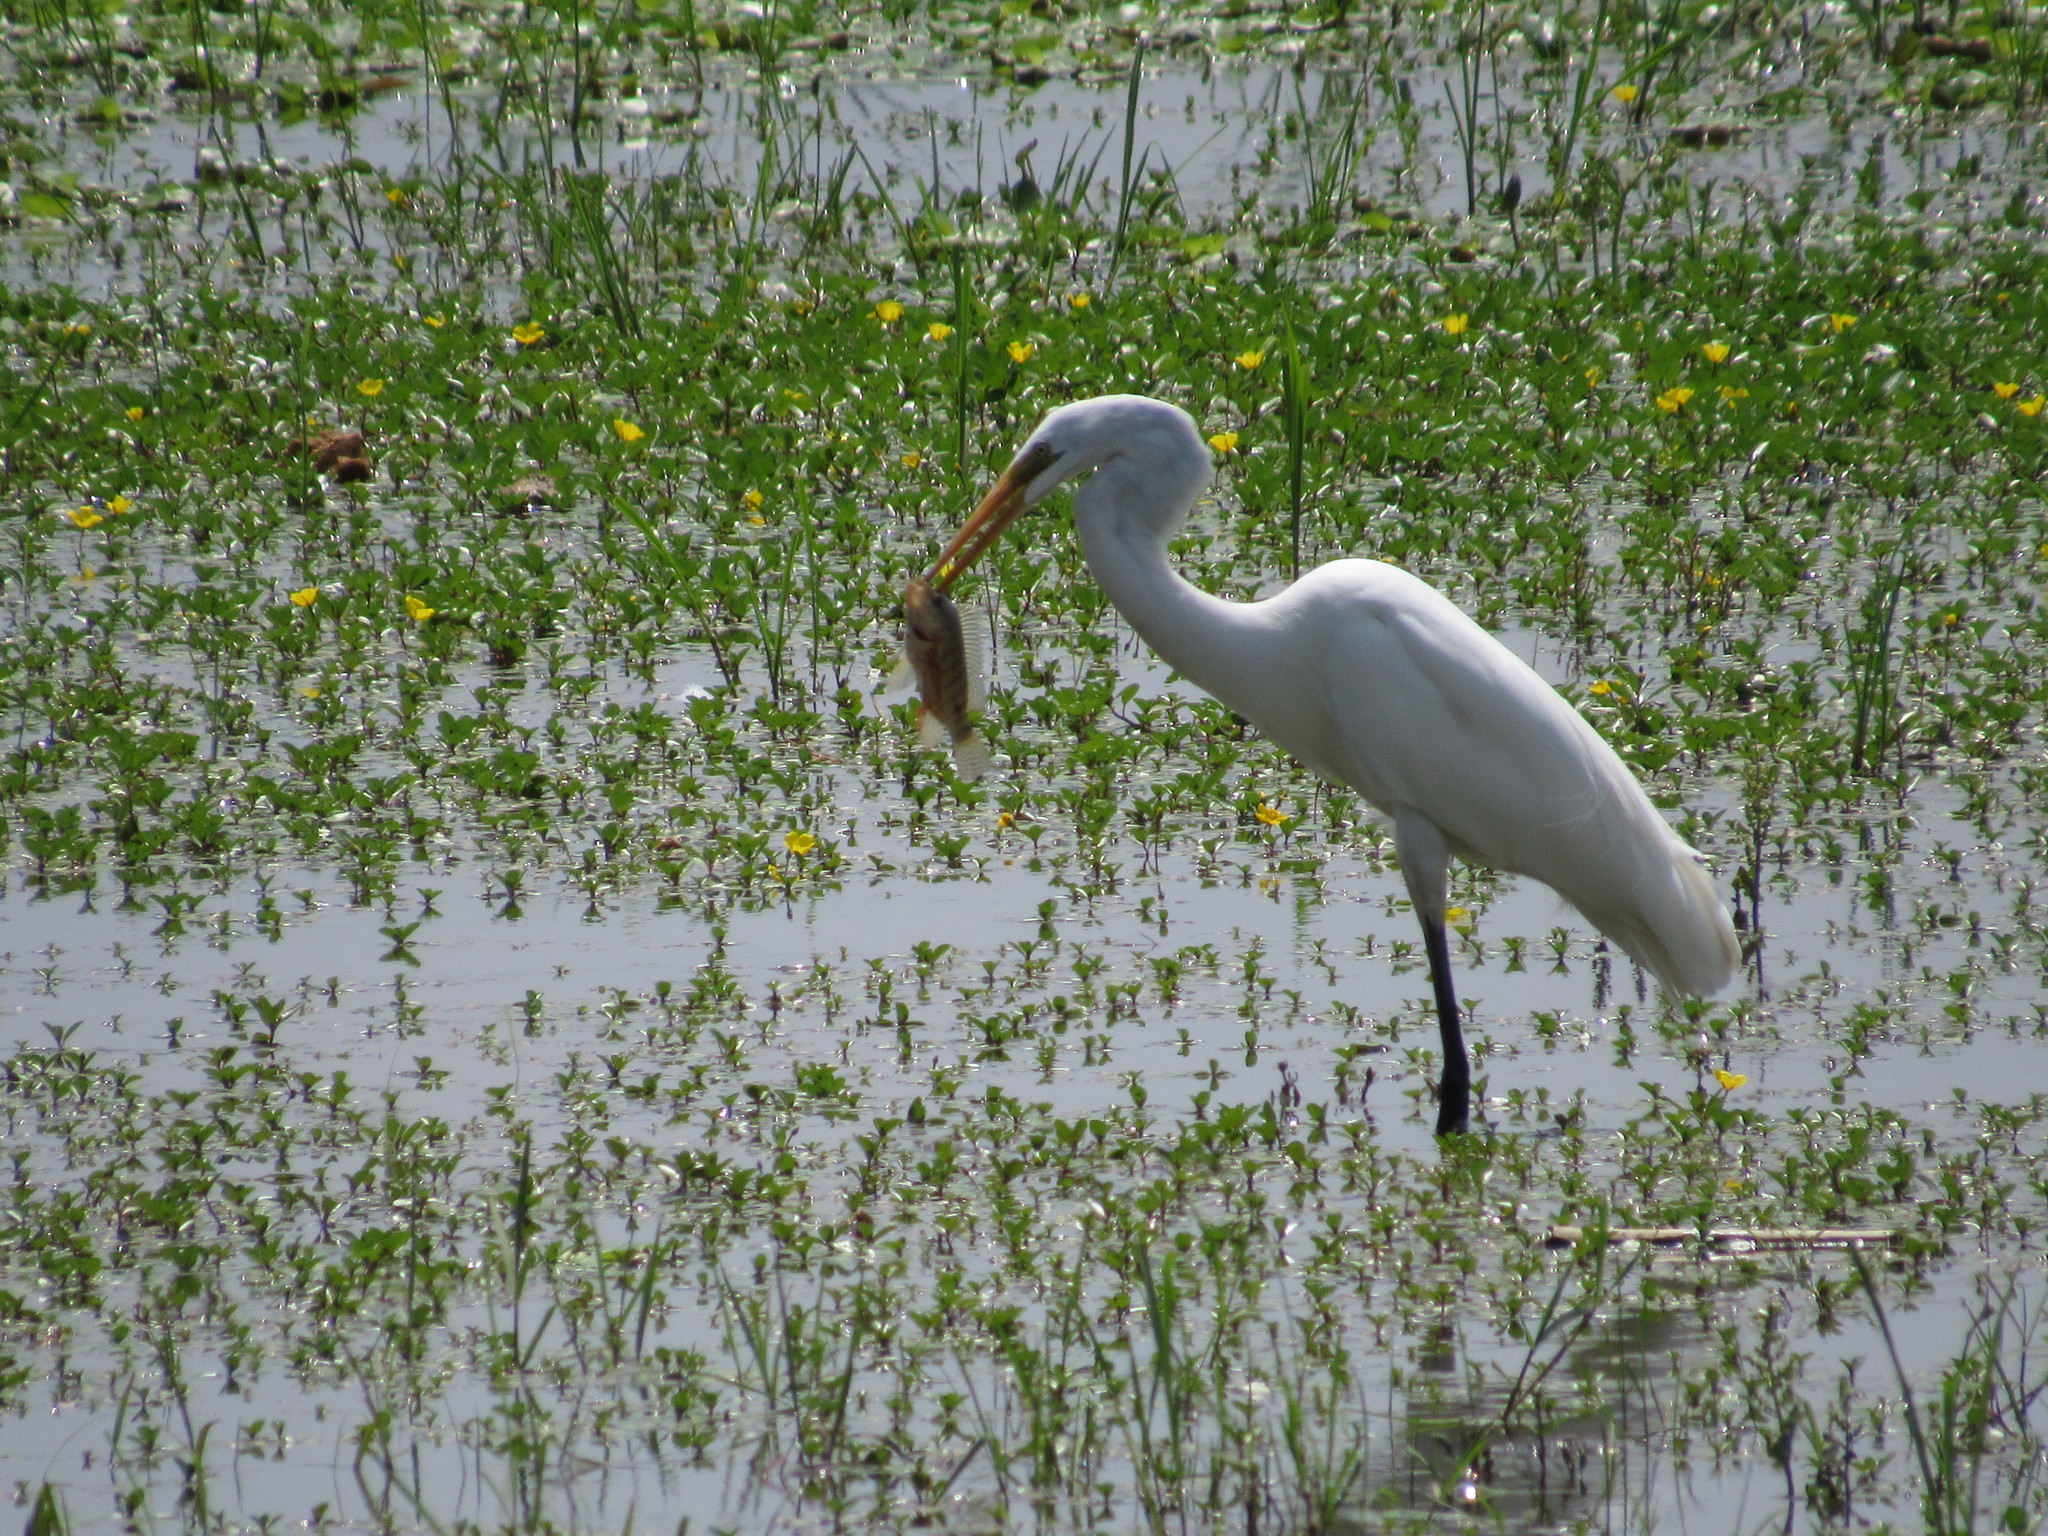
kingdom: Animalia
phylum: Chordata
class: Aves
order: Pelecaniformes
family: Ardeidae
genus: Ardea
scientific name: Ardea alba
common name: Great egret
